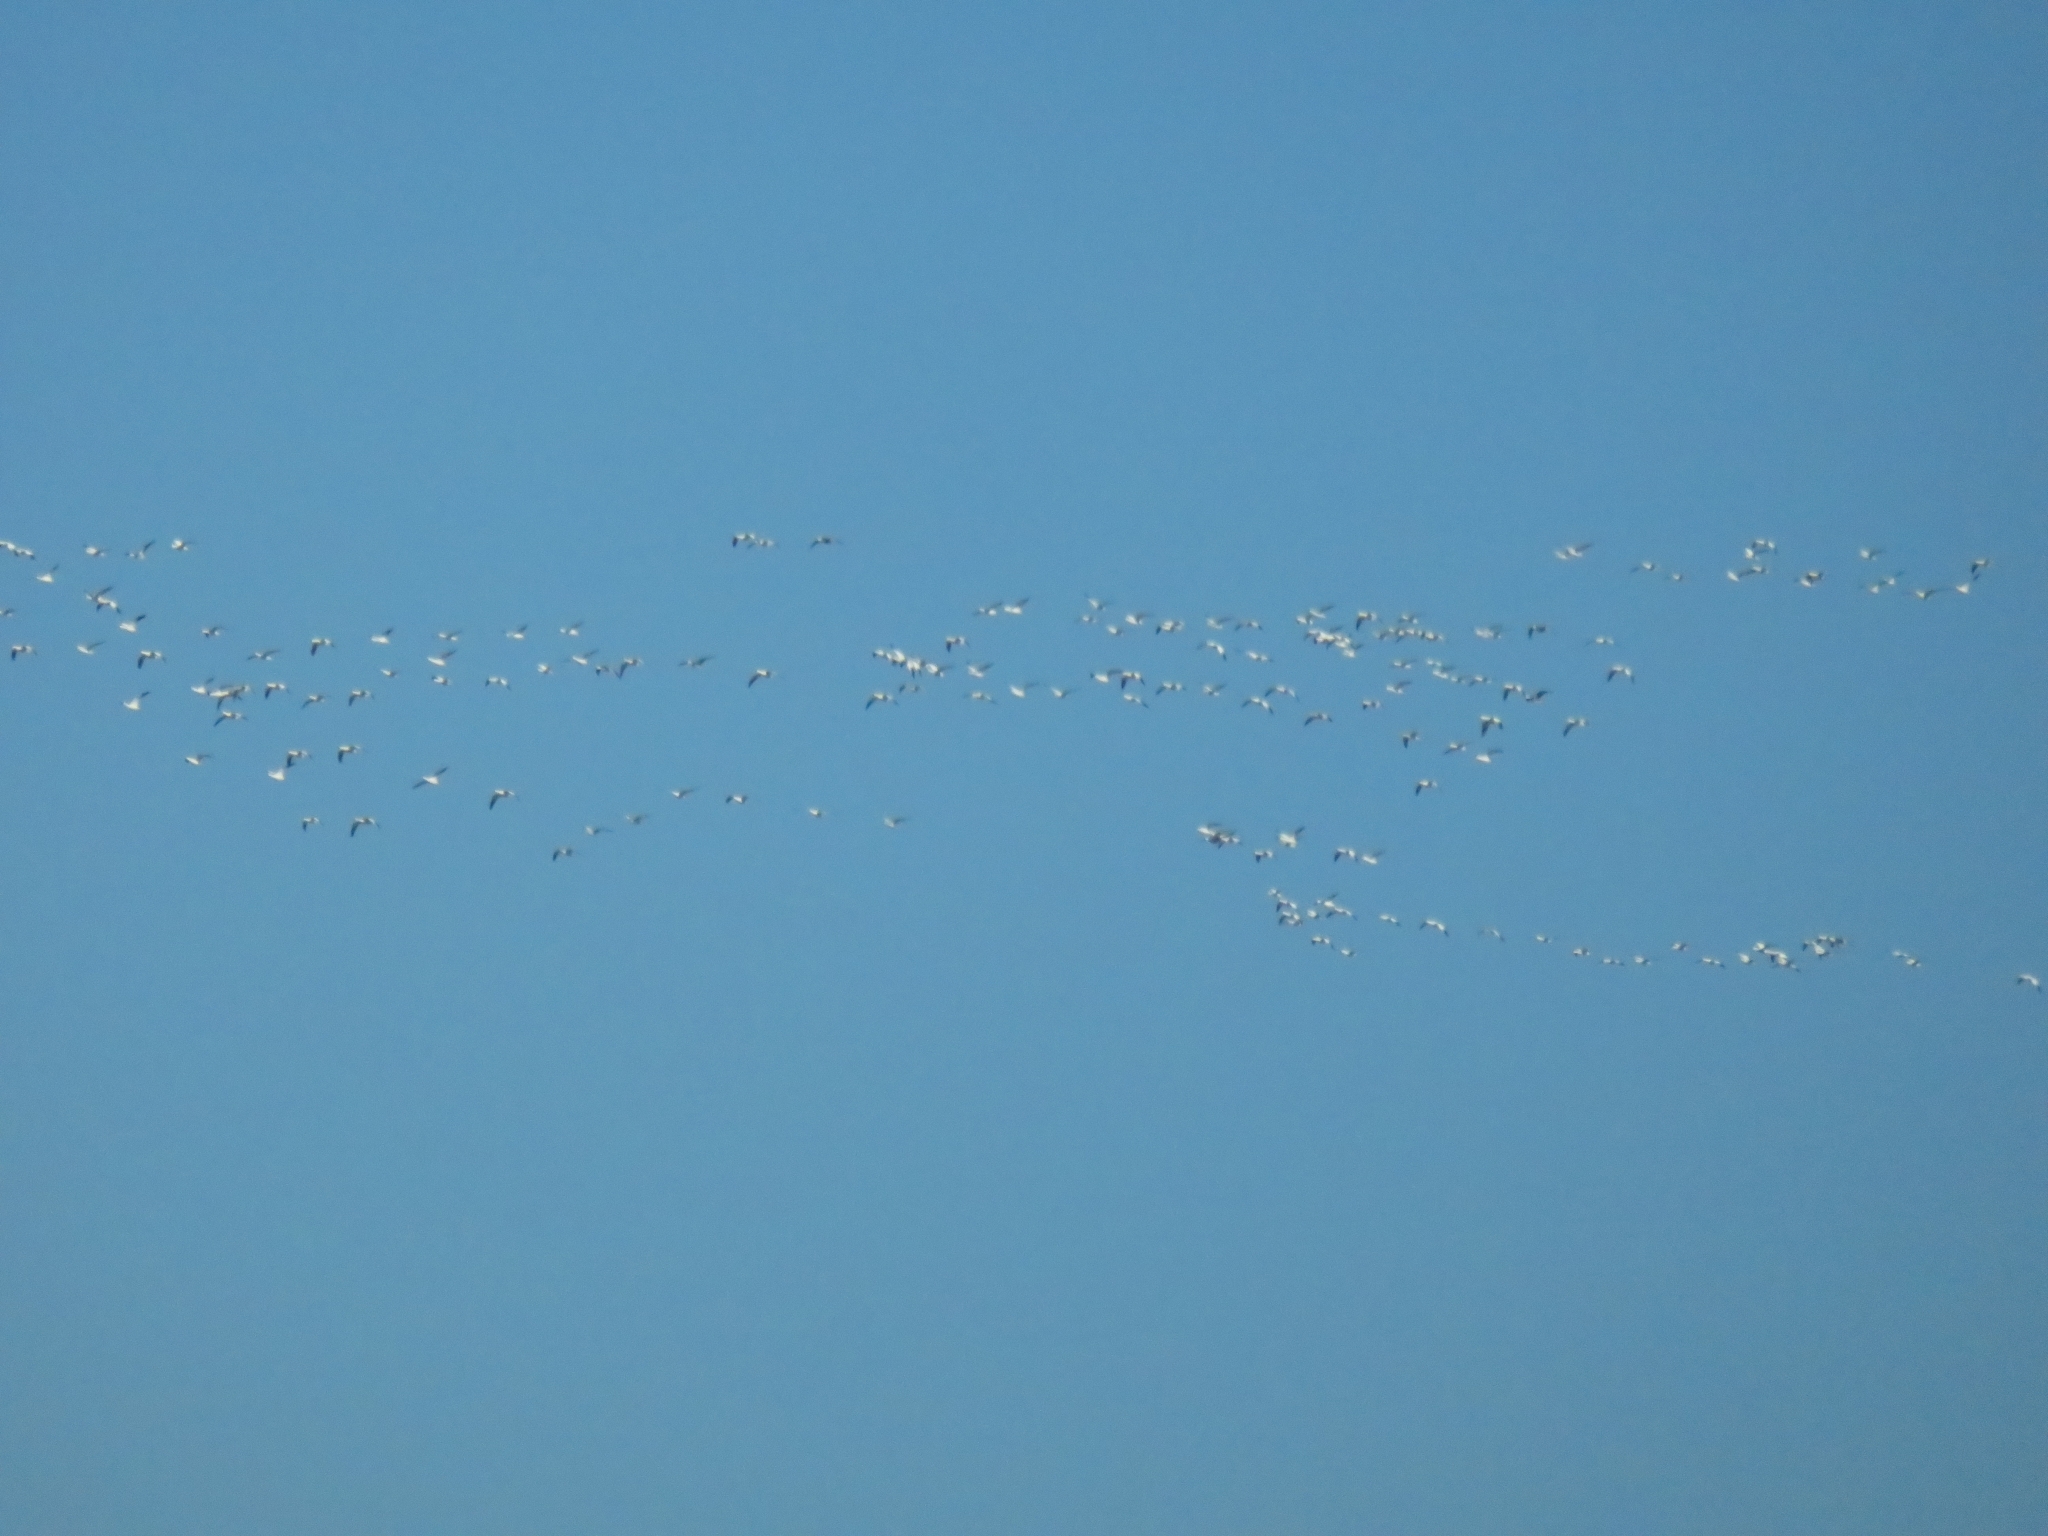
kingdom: Animalia
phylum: Chordata
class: Aves
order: Anseriformes
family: Anatidae
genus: Anser
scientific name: Anser caerulescens
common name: Snow goose
